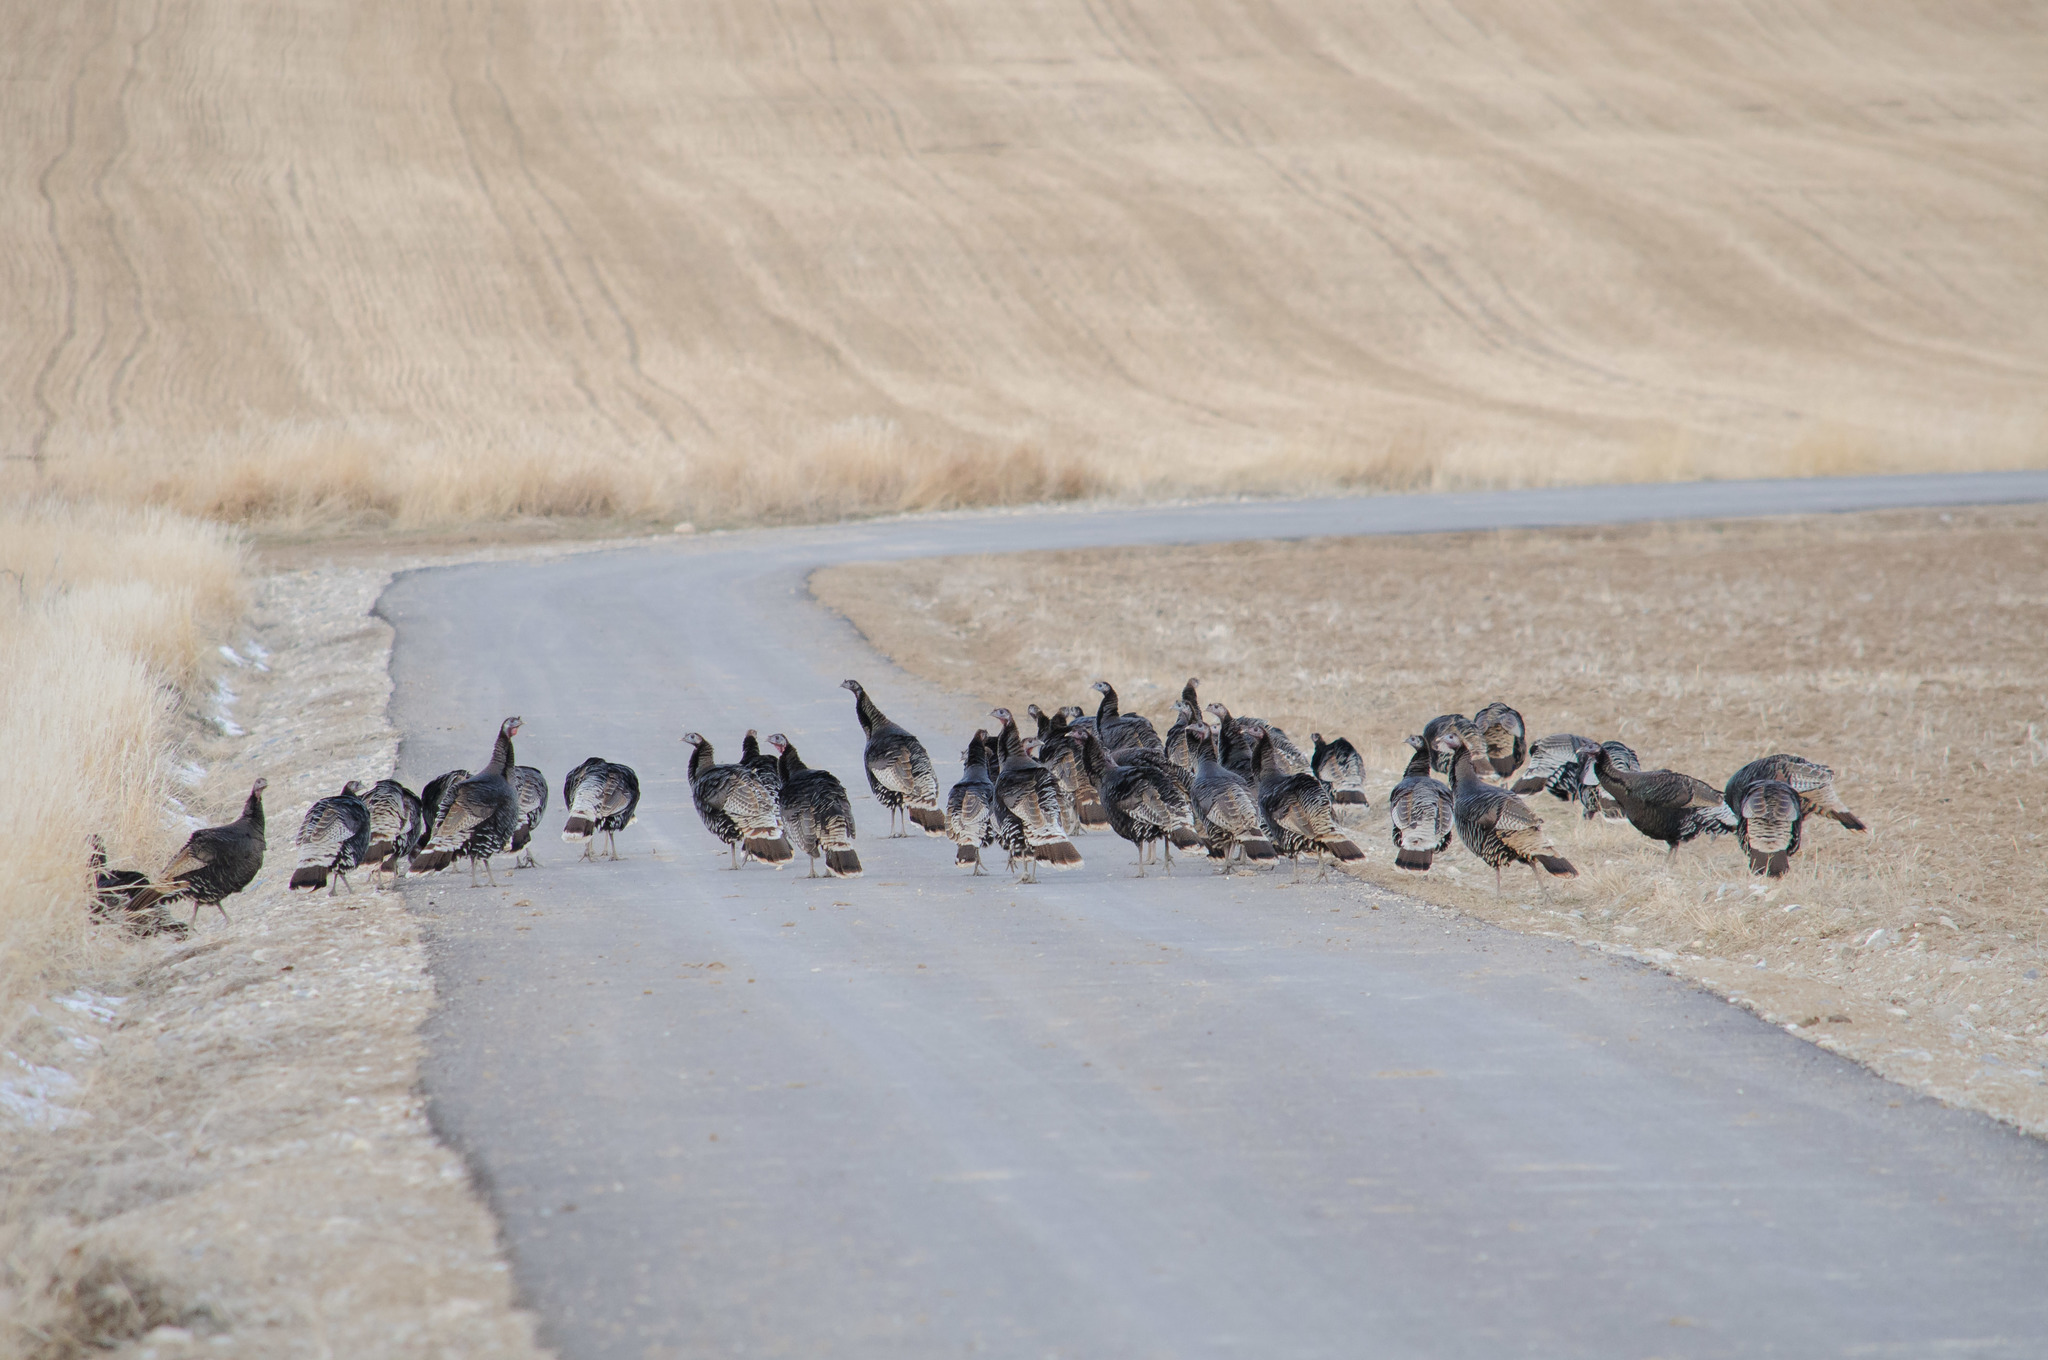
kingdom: Animalia
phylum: Chordata
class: Aves
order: Galliformes
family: Phasianidae
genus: Meleagris
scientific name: Meleagris gallopavo
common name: Wild turkey
